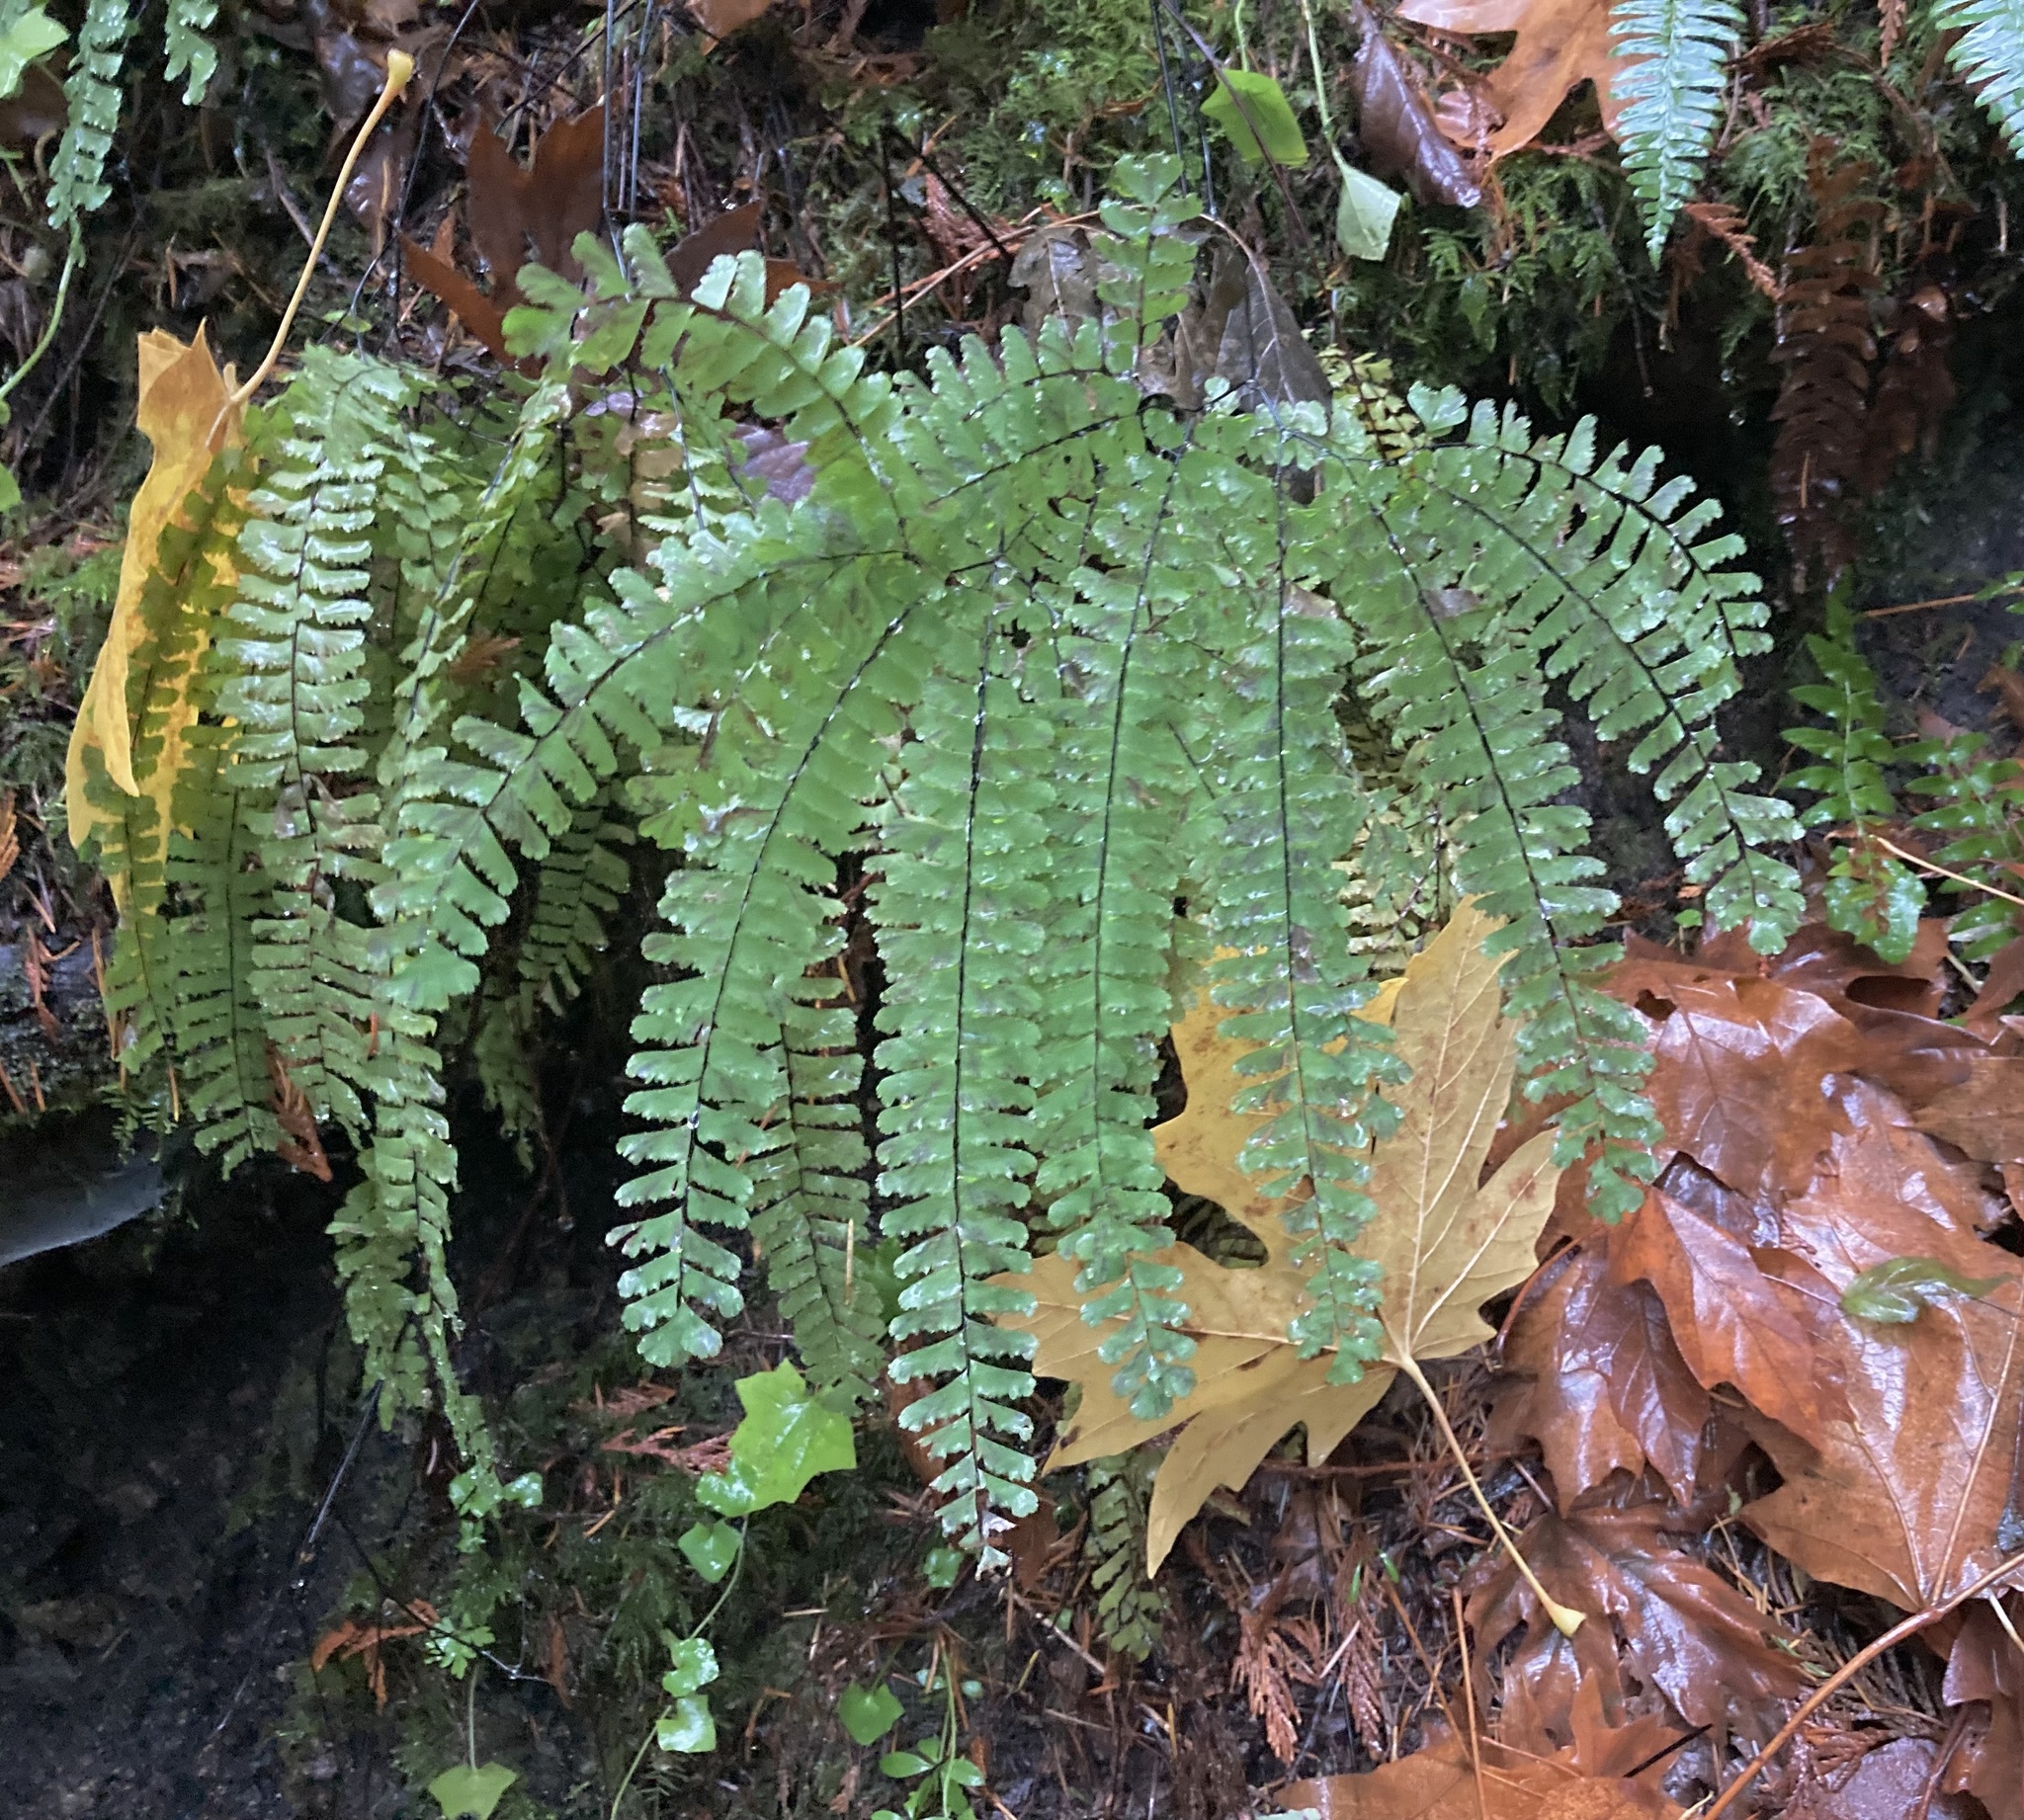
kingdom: Plantae
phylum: Tracheophyta
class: Polypodiopsida
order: Polypodiales
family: Pteridaceae
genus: Adiantum
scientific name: Adiantum aleuticum
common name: Aleutian maidenhair fern
